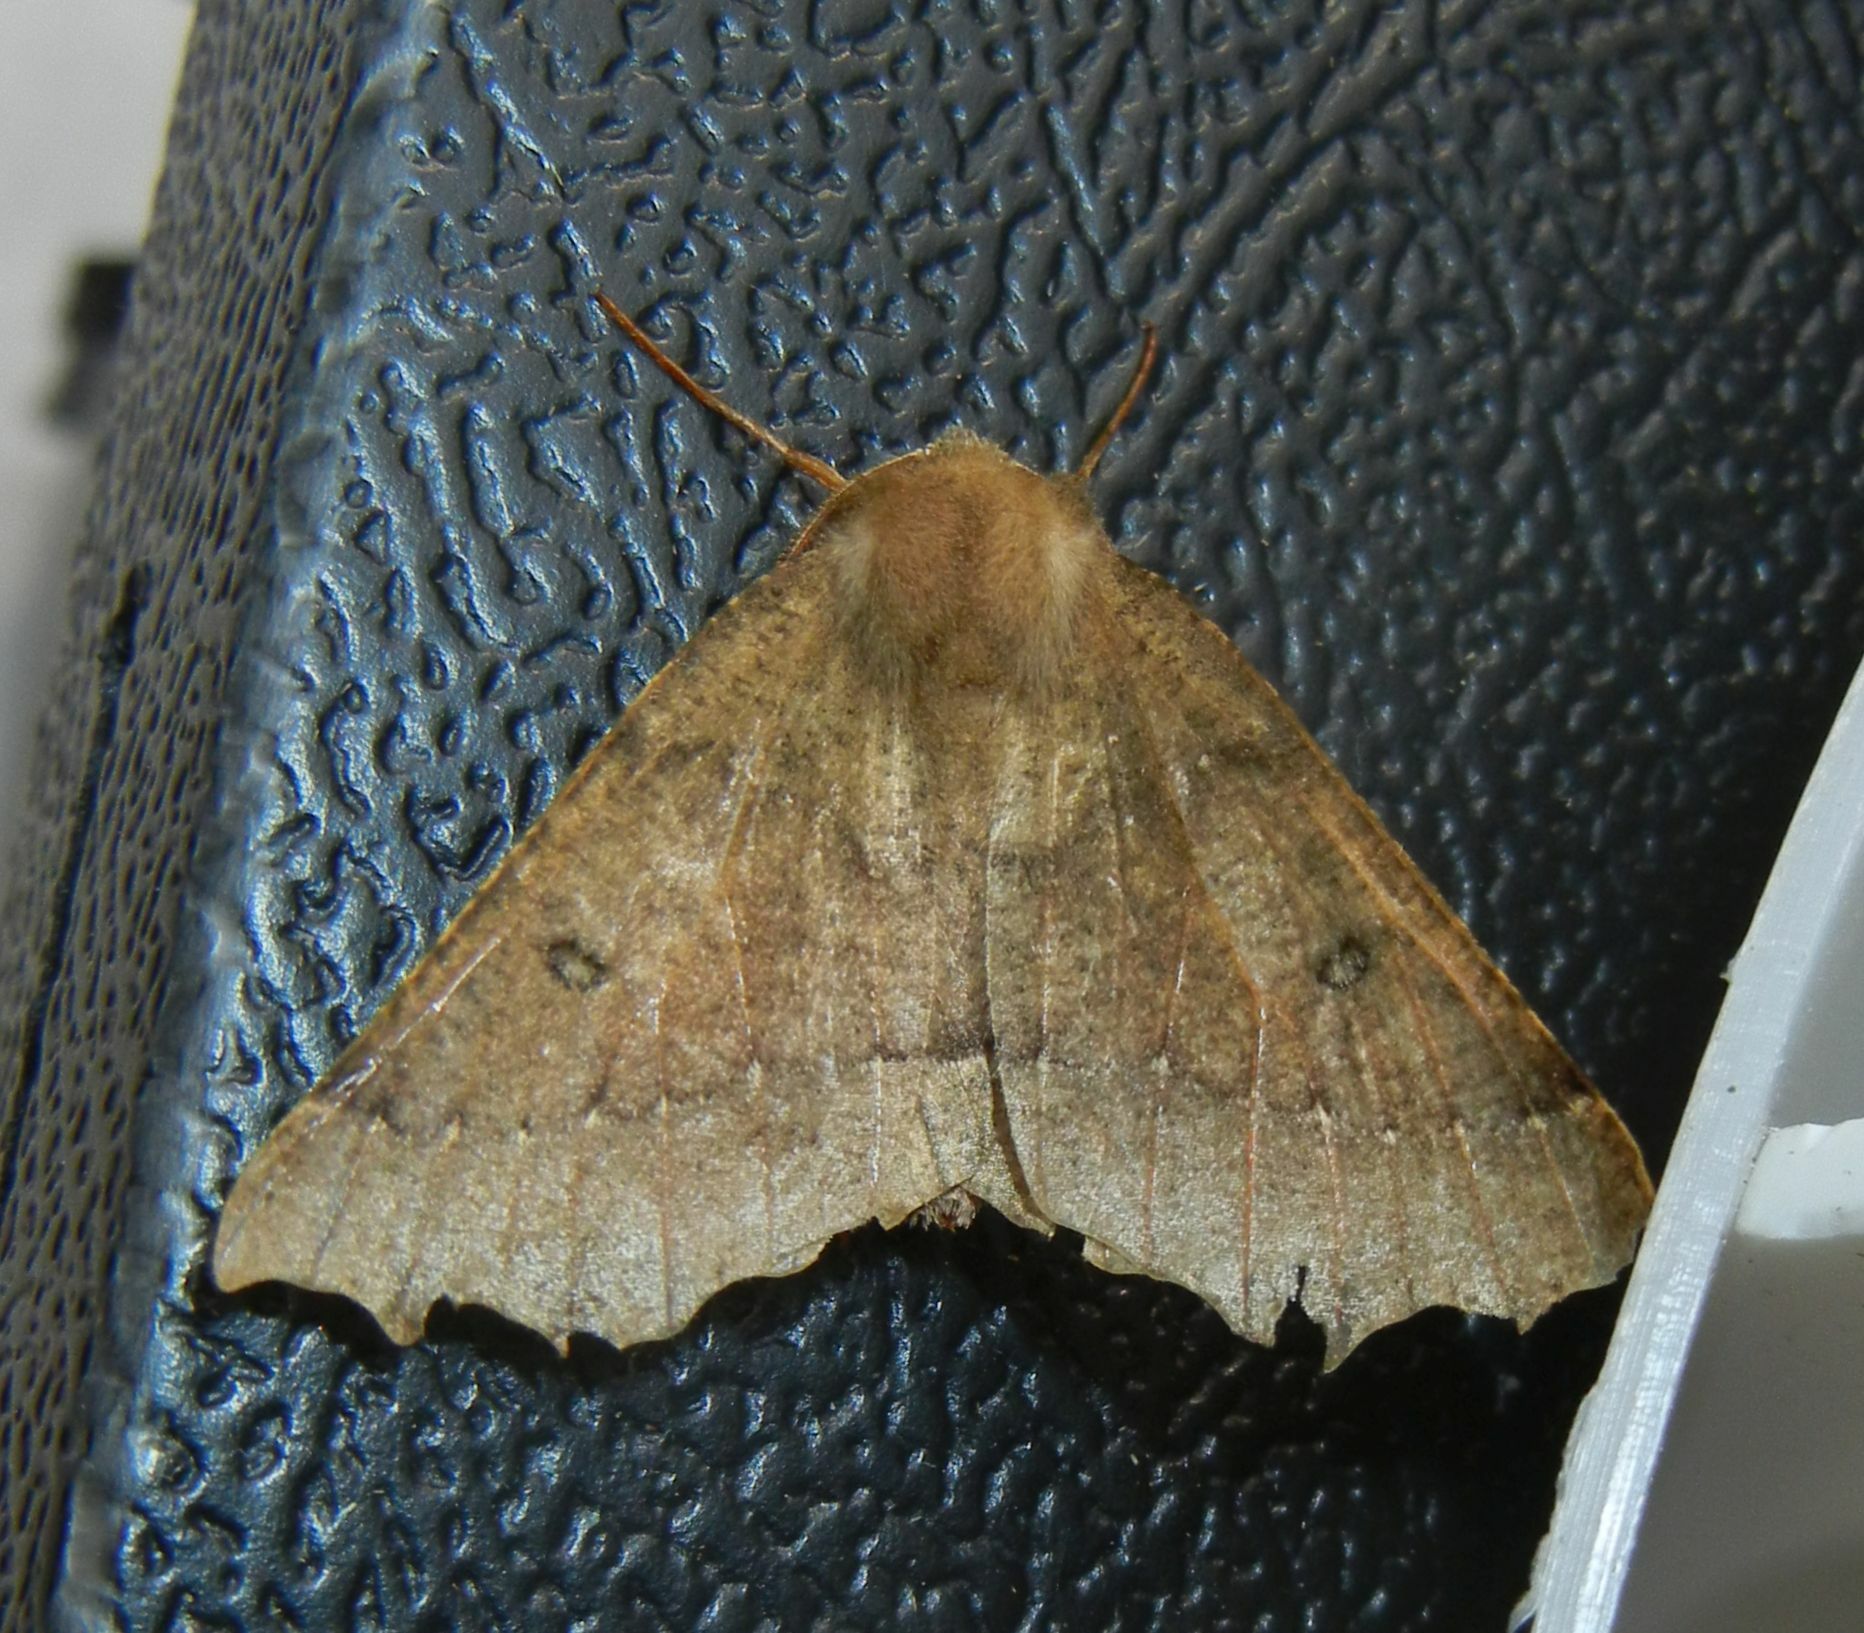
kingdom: Animalia
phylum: Arthropoda
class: Insecta
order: Lepidoptera
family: Geometridae
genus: Odontopera
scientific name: Odontopera bidentata
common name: Scalloped hazel
